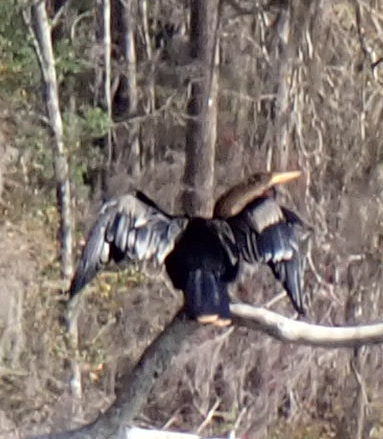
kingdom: Animalia
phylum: Chordata
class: Aves
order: Suliformes
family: Anhingidae
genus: Anhinga
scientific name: Anhinga anhinga
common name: Anhinga
